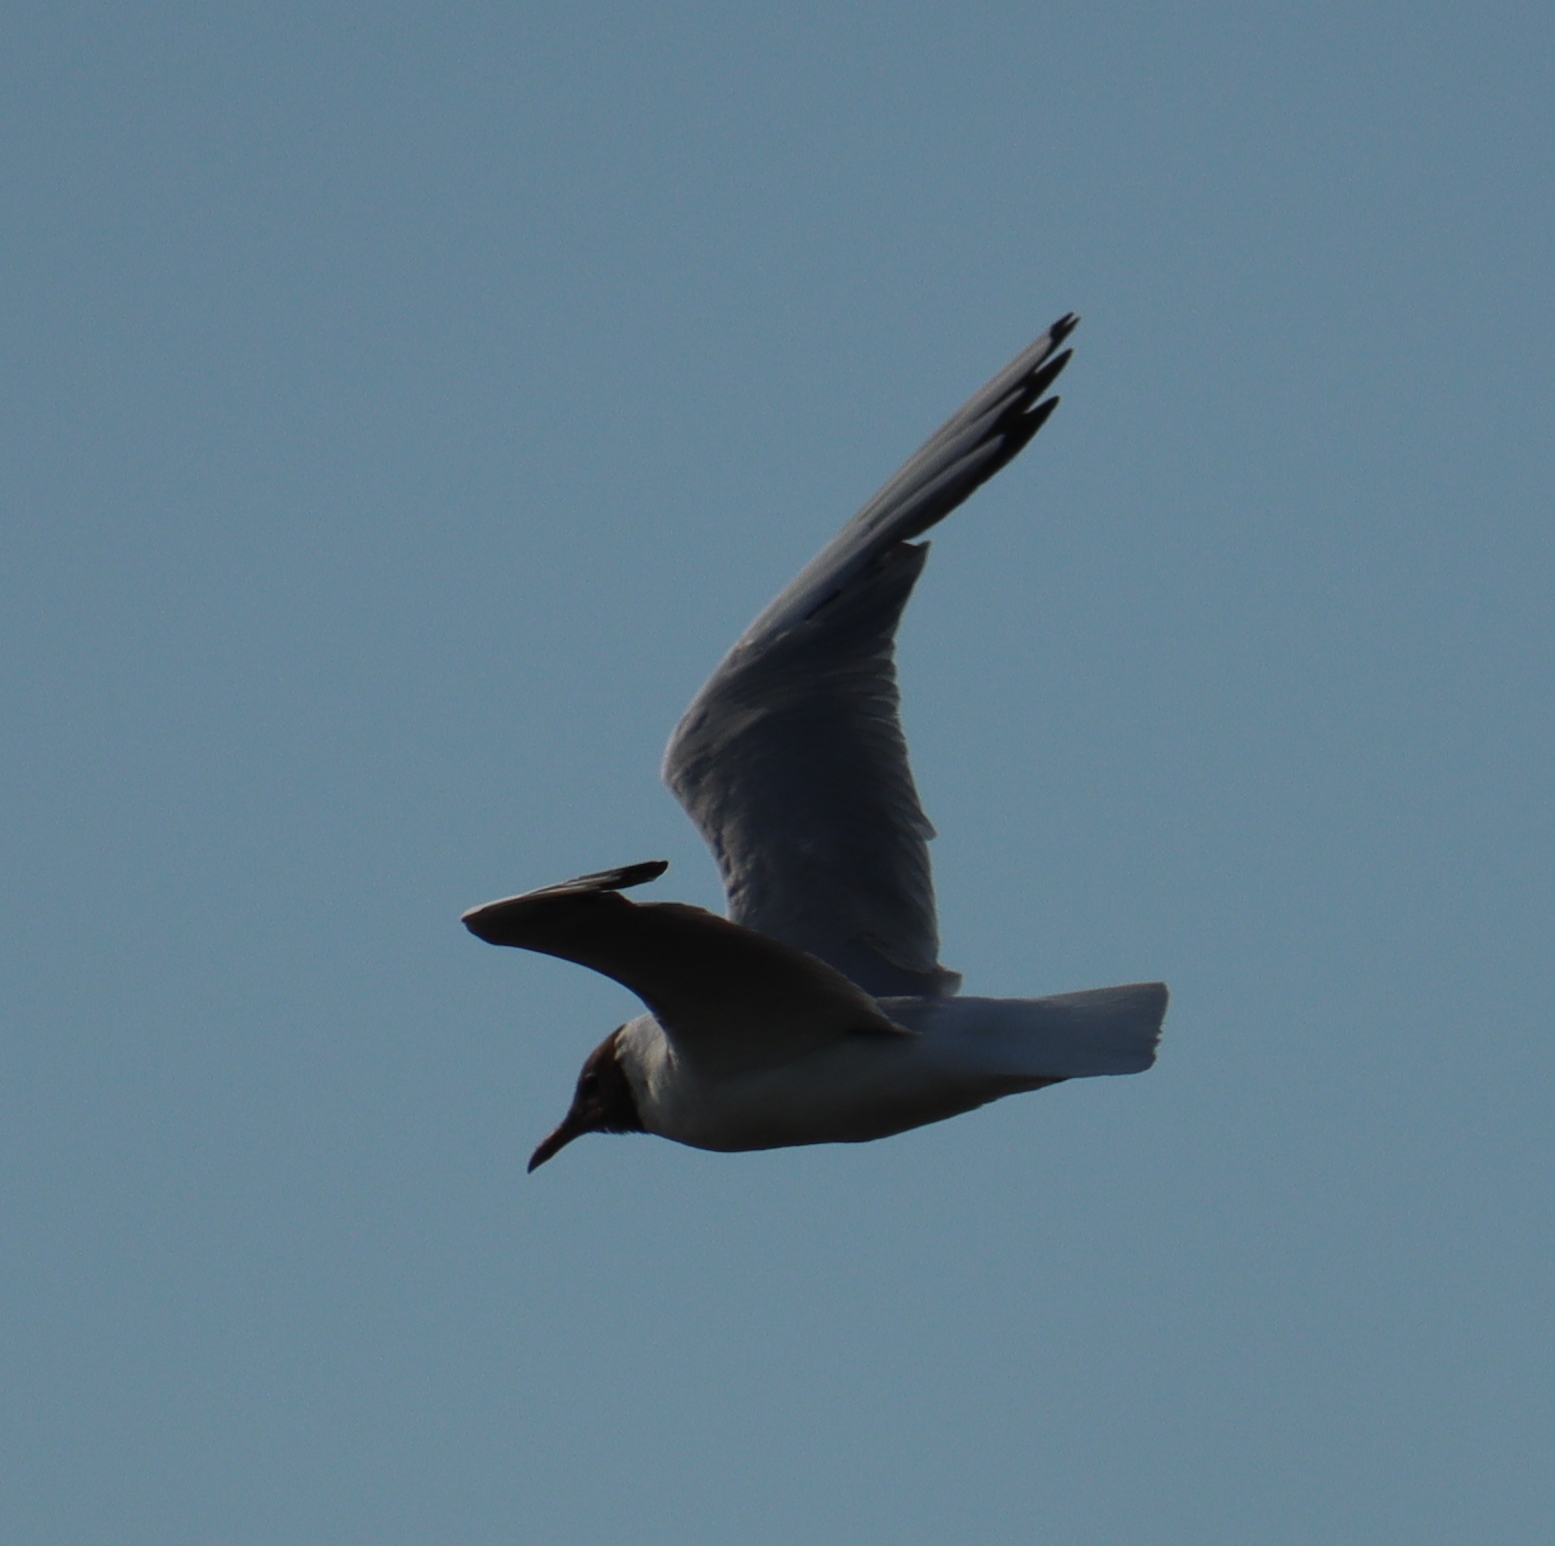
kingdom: Animalia
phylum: Chordata
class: Aves
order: Charadriiformes
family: Laridae
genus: Chroicocephalus
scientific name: Chroicocephalus ridibundus
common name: Black-headed gull
